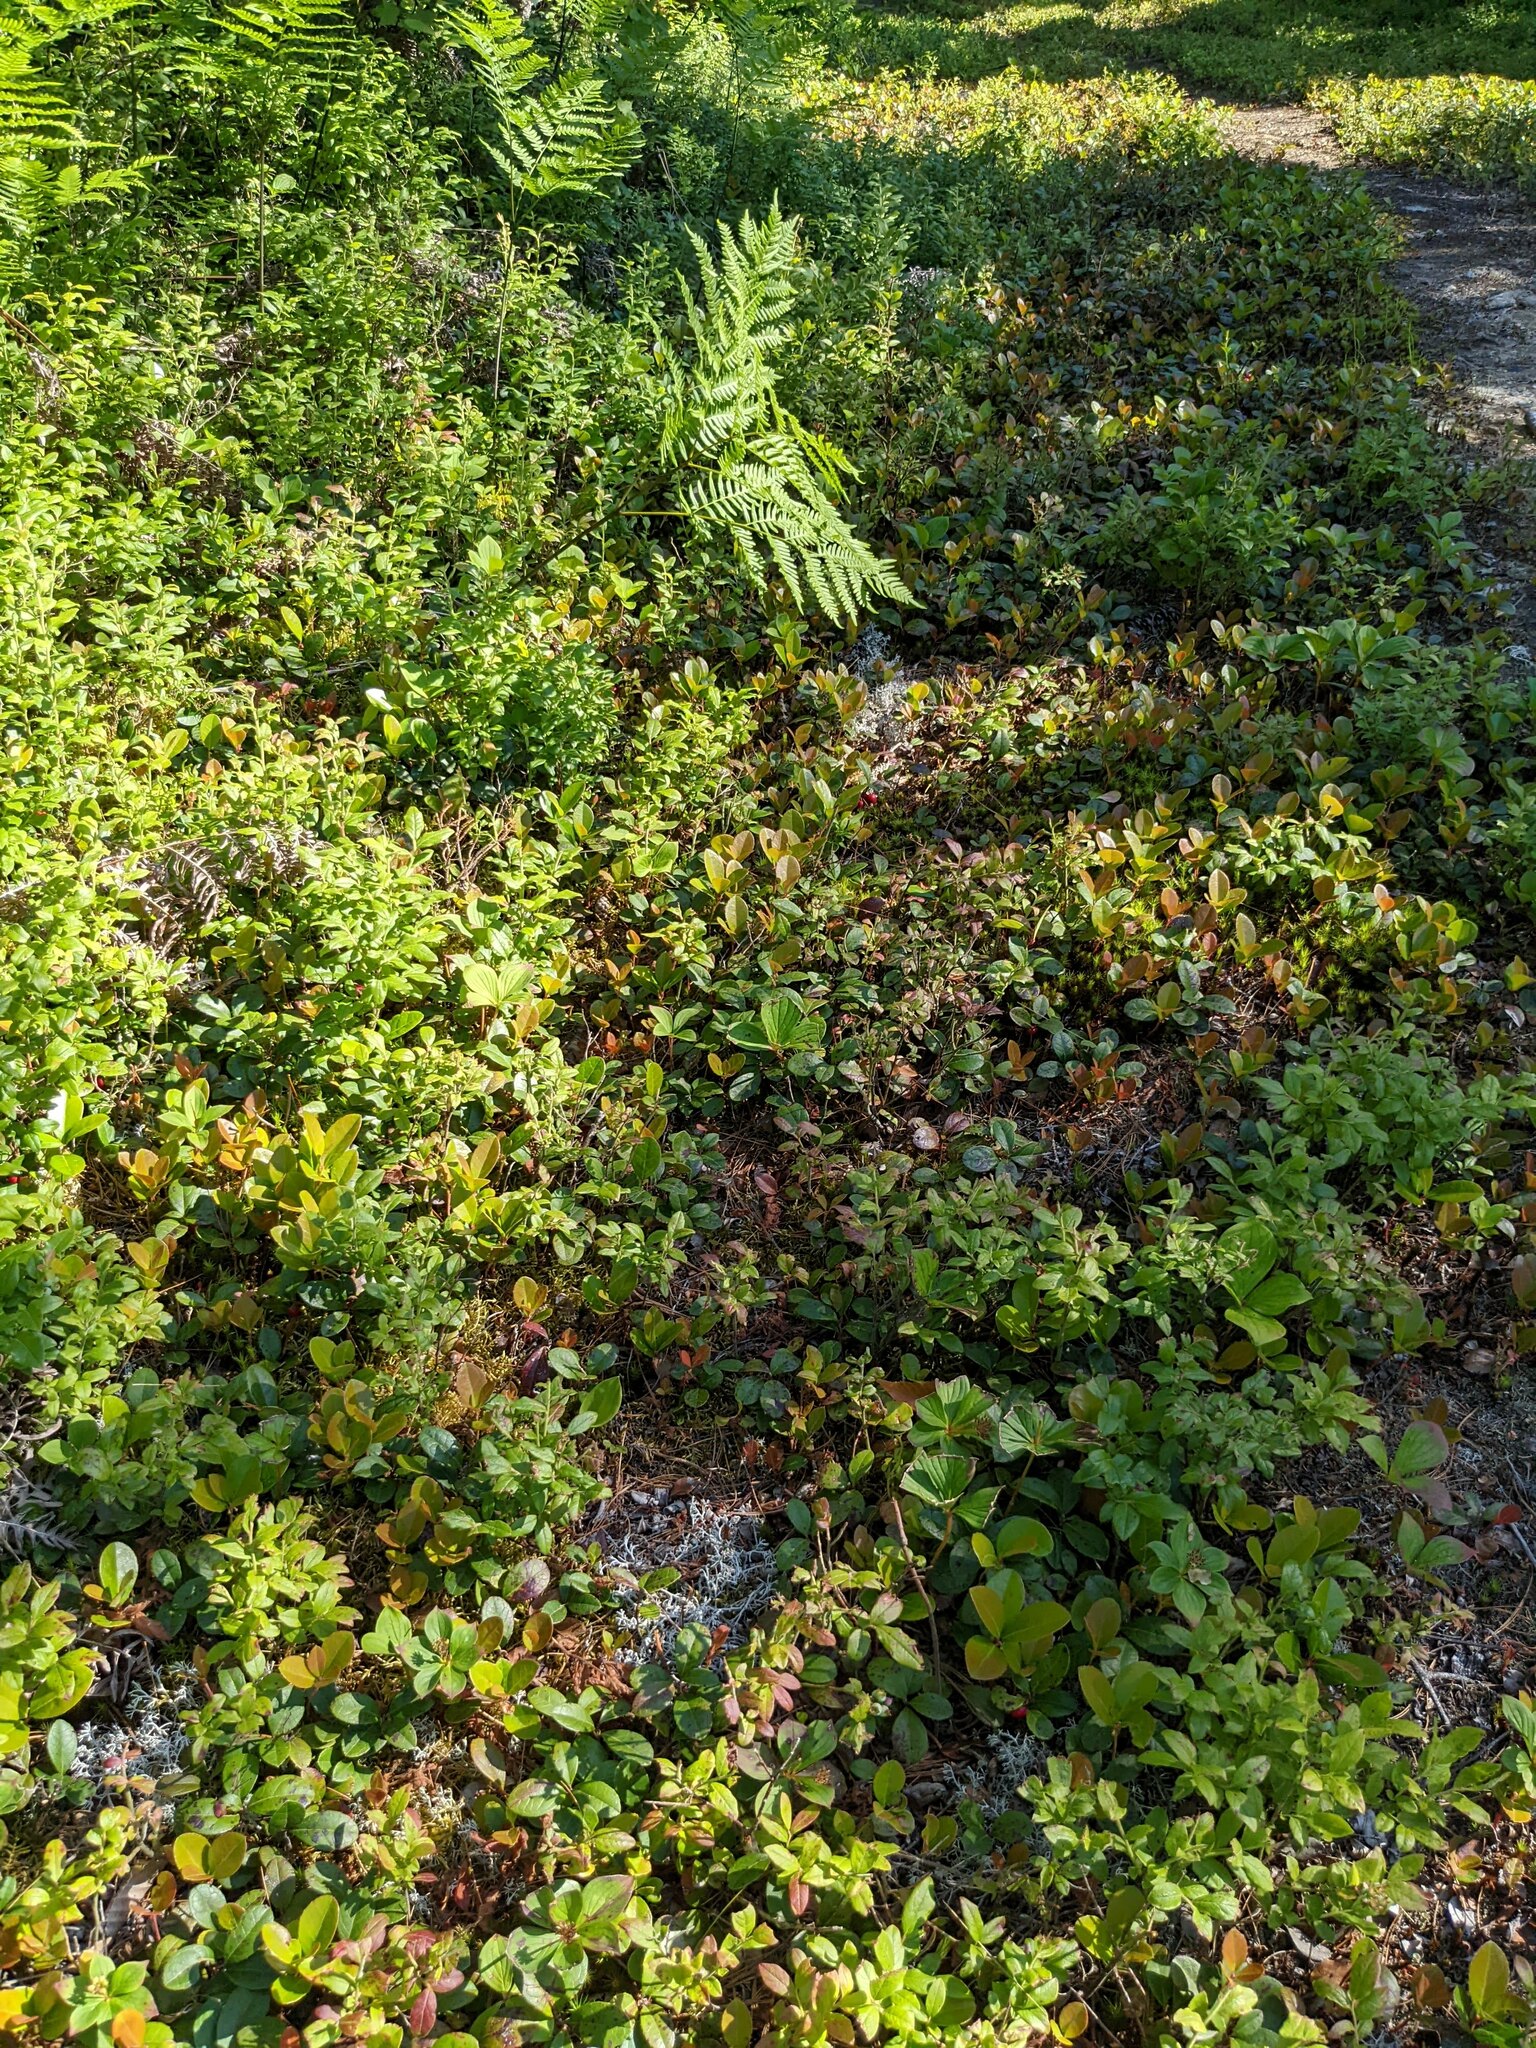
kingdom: Plantae
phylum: Tracheophyta
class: Magnoliopsida
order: Ericales
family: Ericaceae
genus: Gaultheria
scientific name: Gaultheria procumbens
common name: Checkerberry
